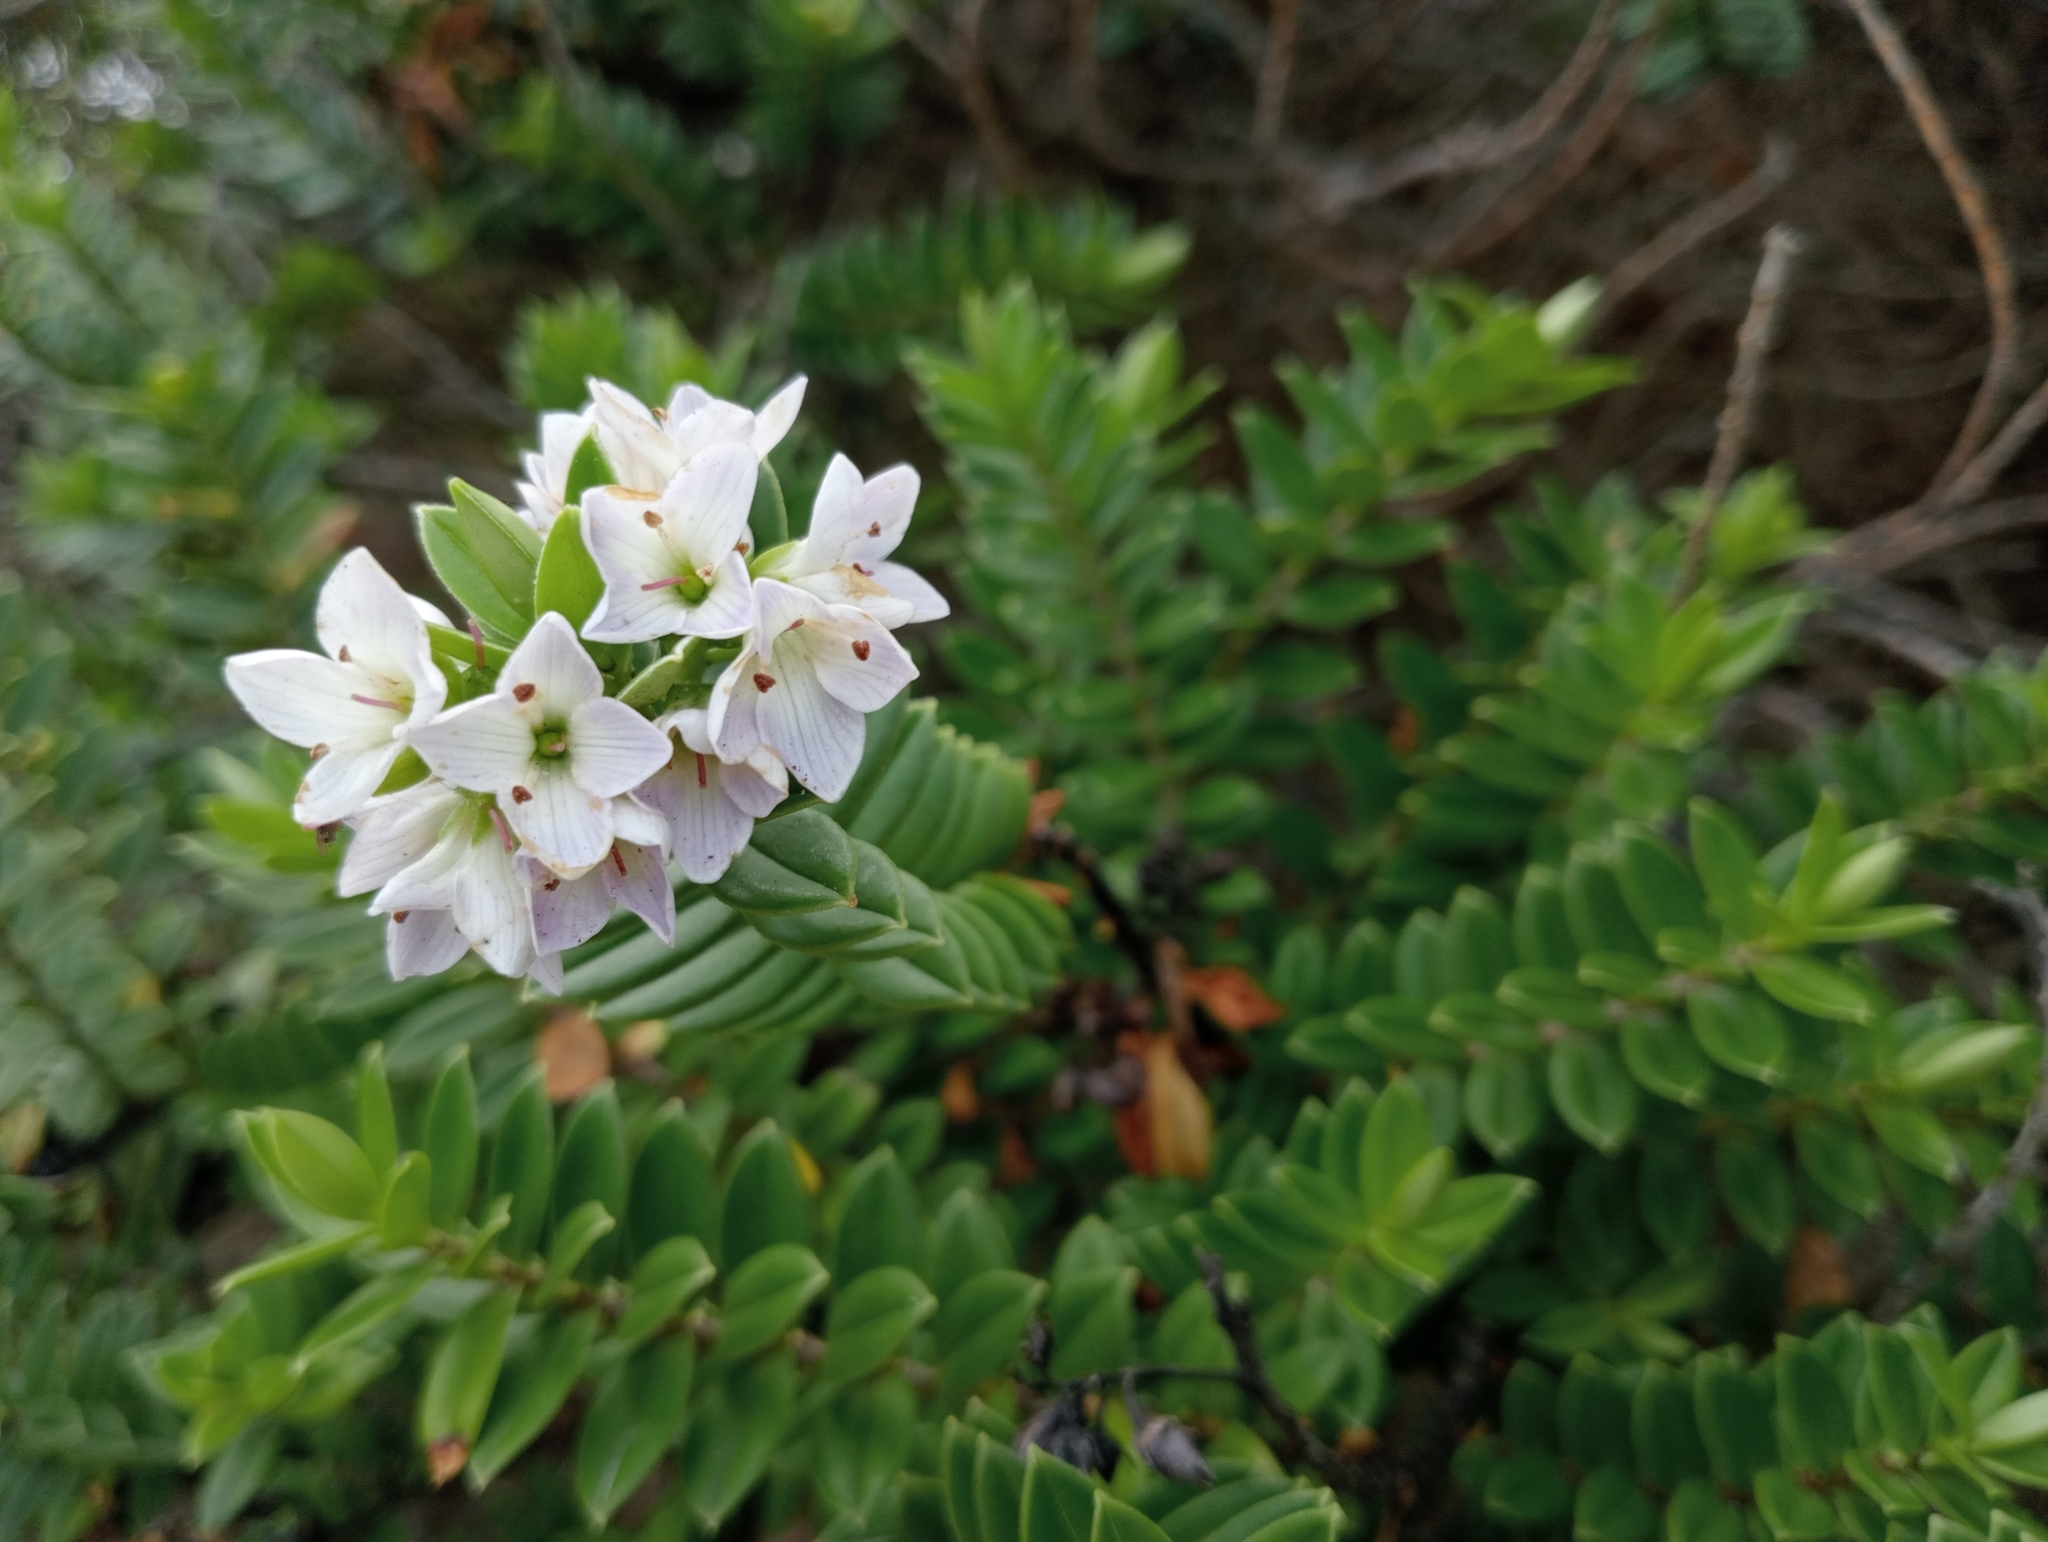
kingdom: Plantae
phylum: Tracheophyta
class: Magnoliopsida
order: Lamiales
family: Plantaginaceae
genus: Veronica
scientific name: Veronica elliptica
